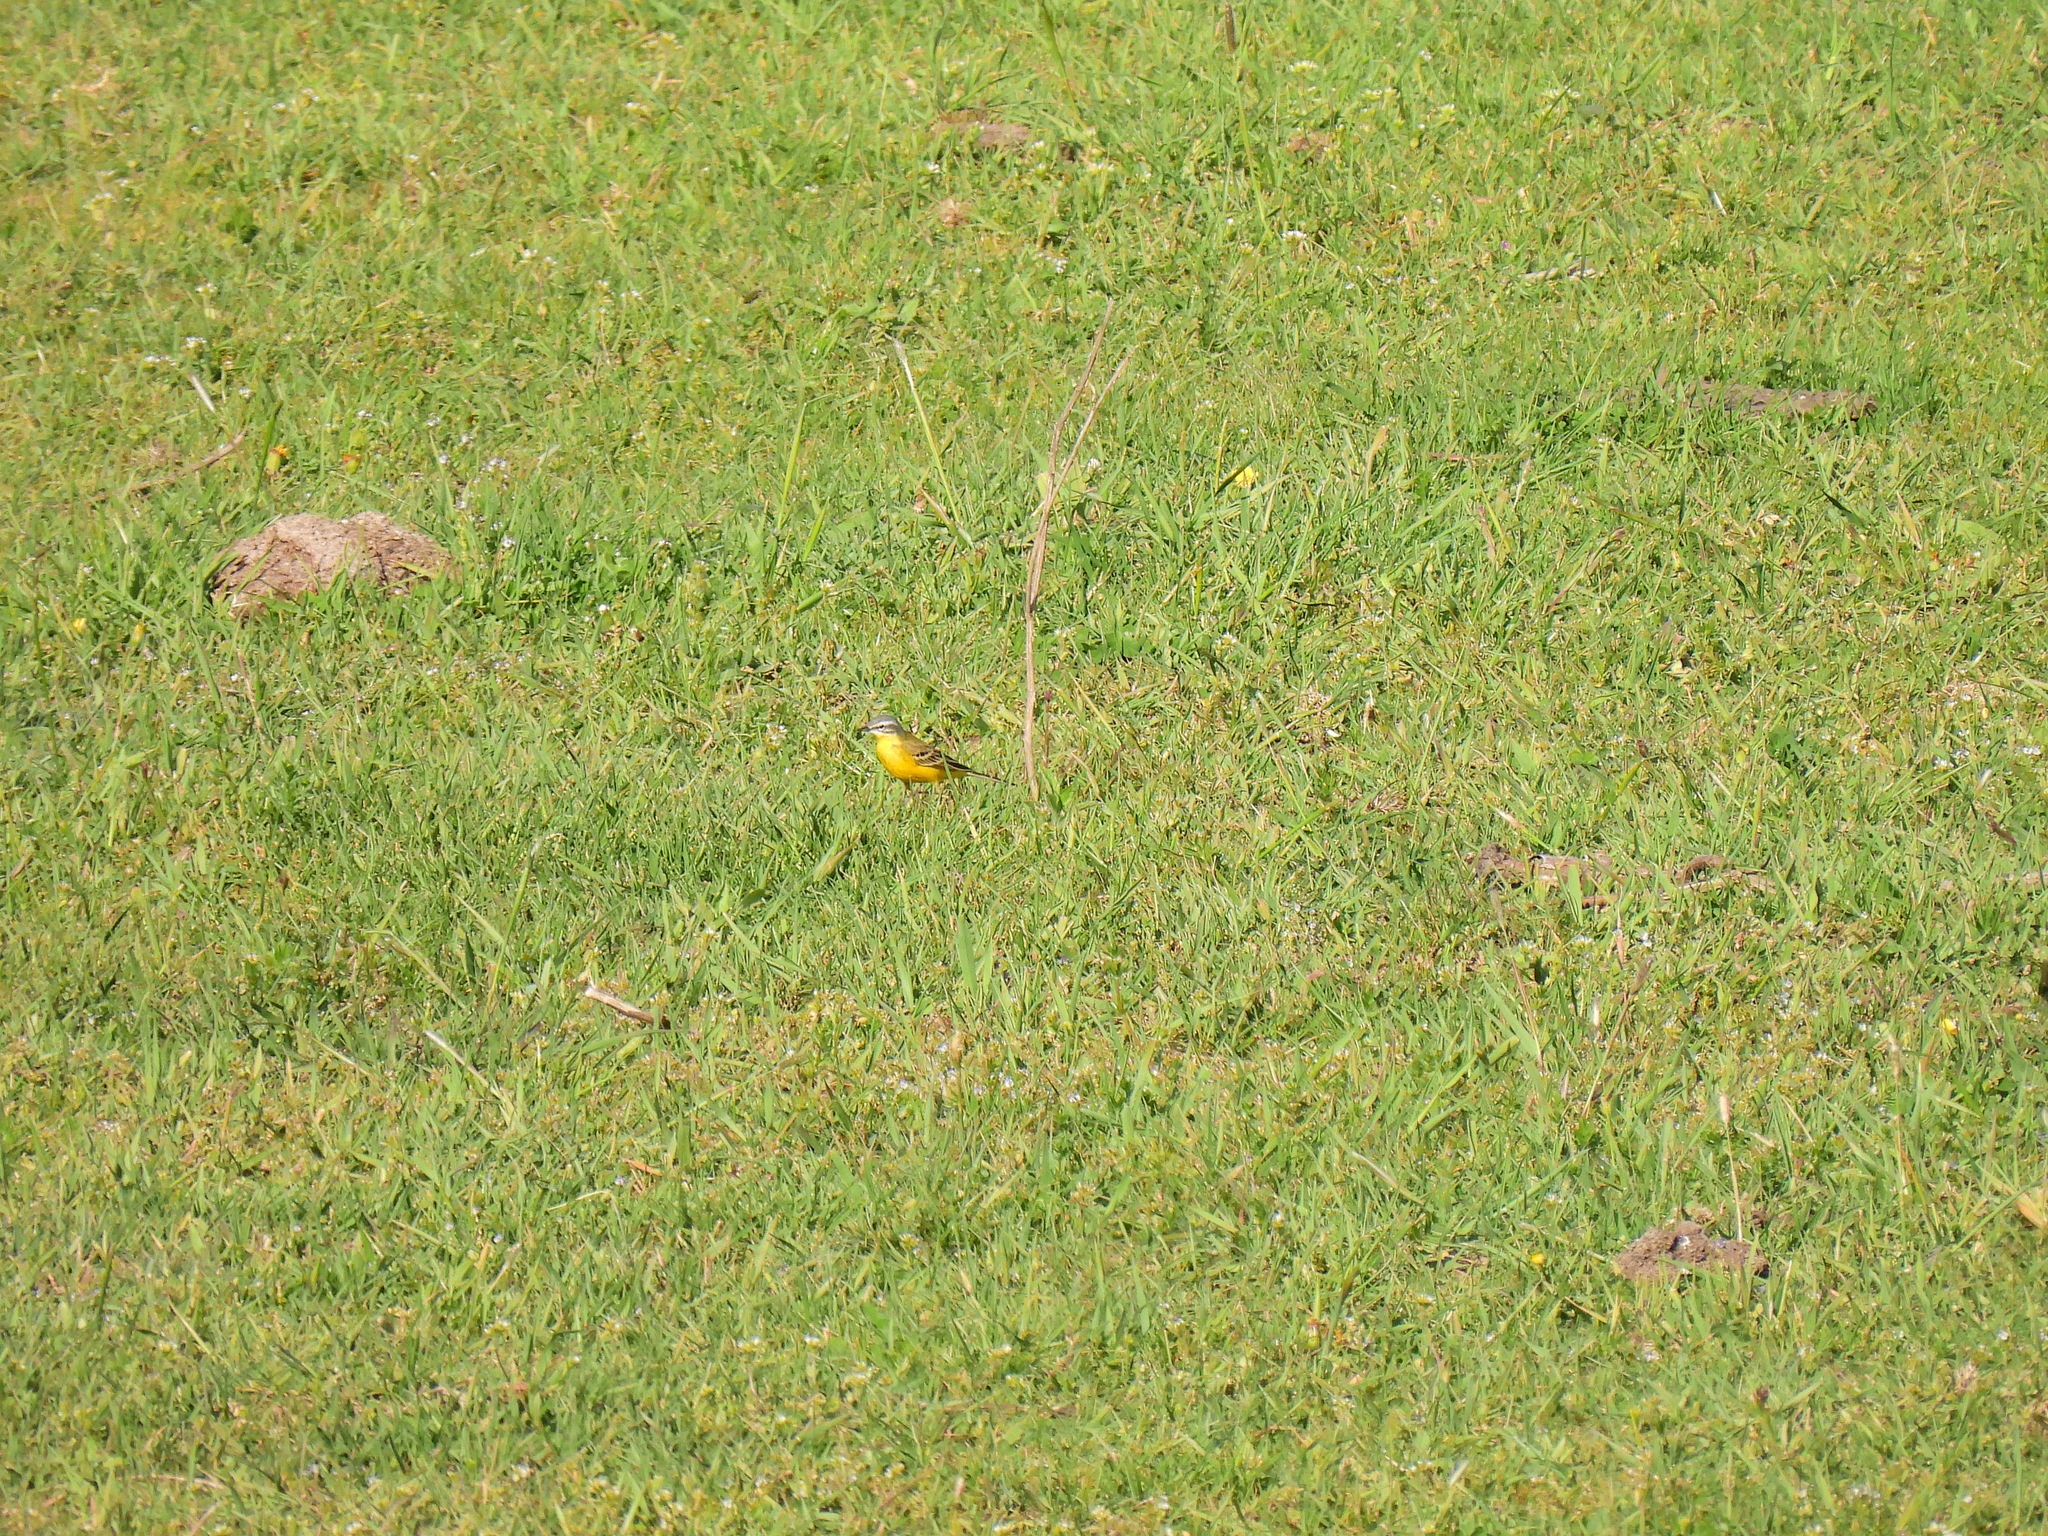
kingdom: Animalia
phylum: Chordata
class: Aves
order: Passeriformes
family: Motacillidae
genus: Motacilla
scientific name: Motacilla flava
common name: Western yellow wagtail
